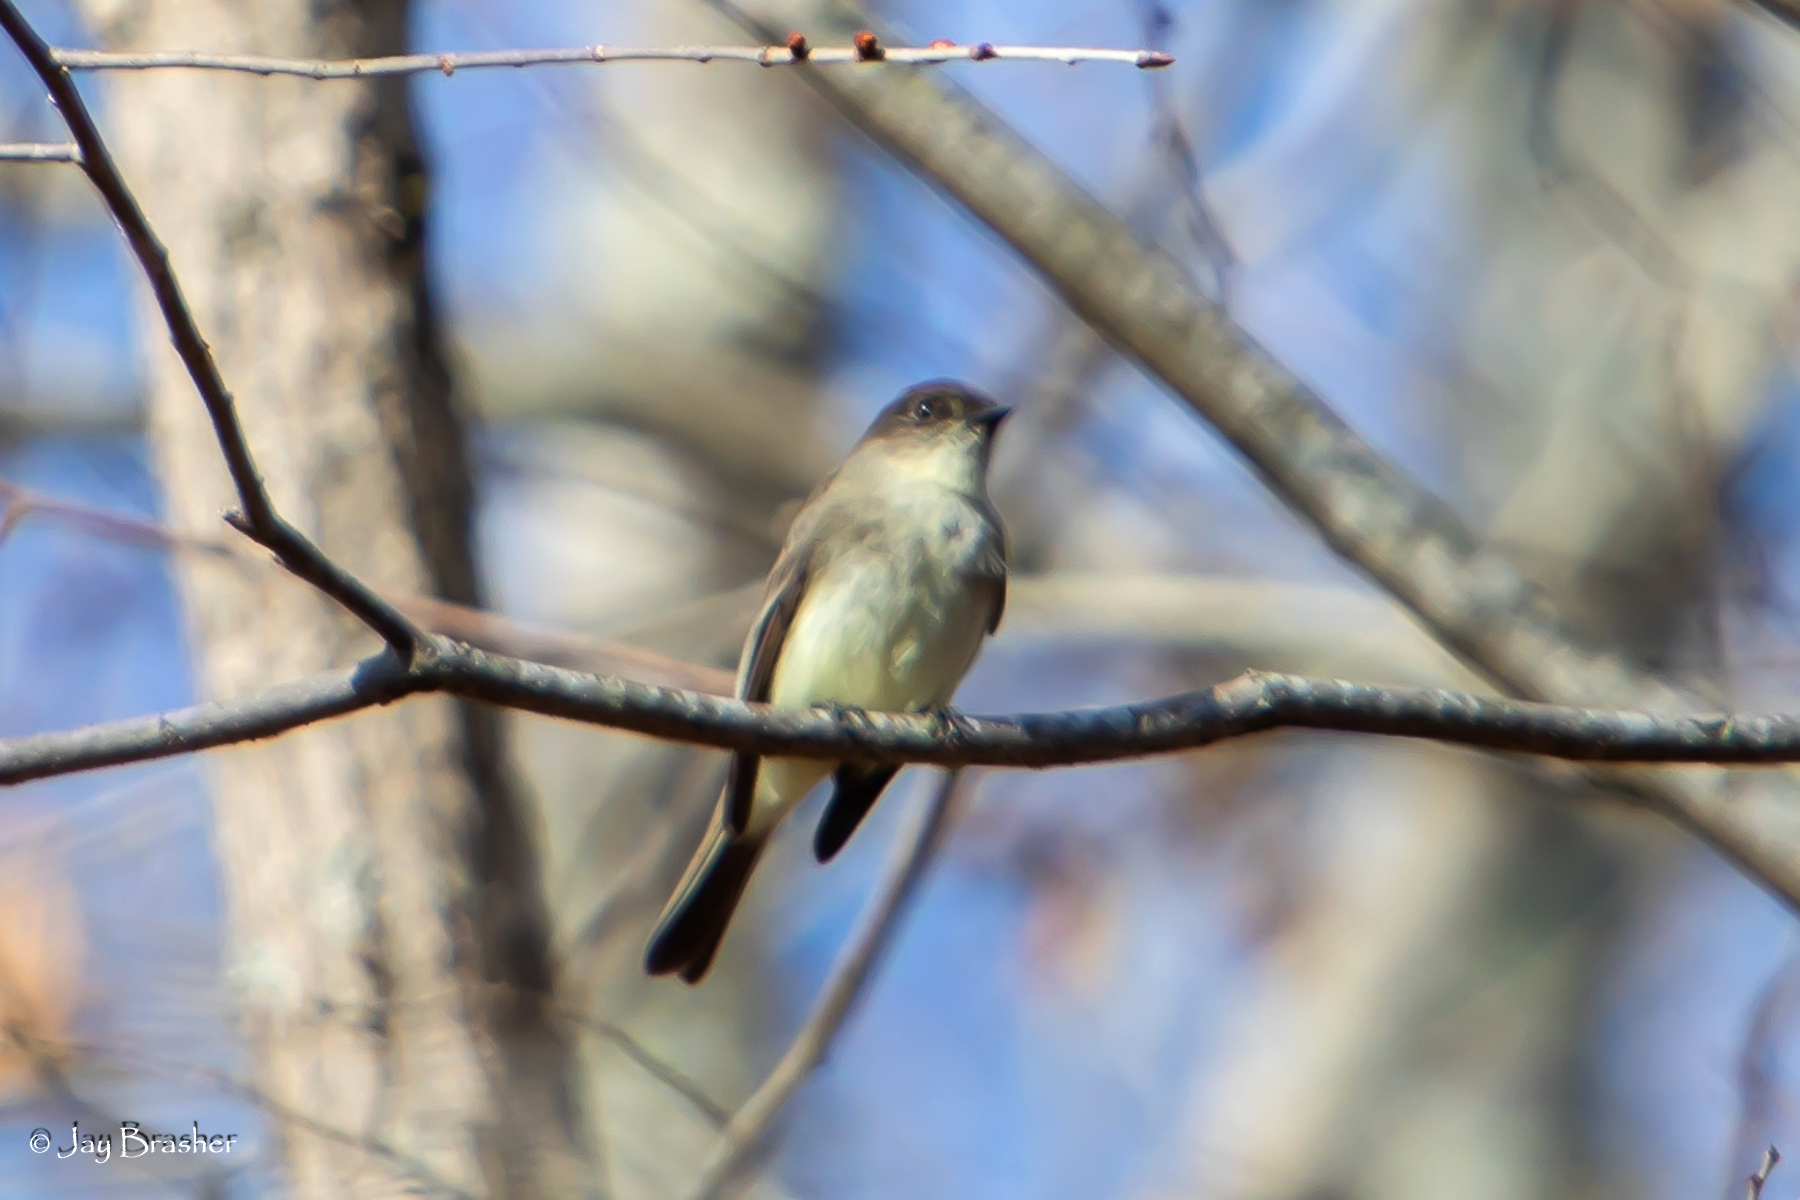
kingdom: Animalia
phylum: Chordata
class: Aves
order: Passeriformes
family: Tyrannidae
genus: Sayornis
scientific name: Sayornis phoebe
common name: Eastern phoebe
